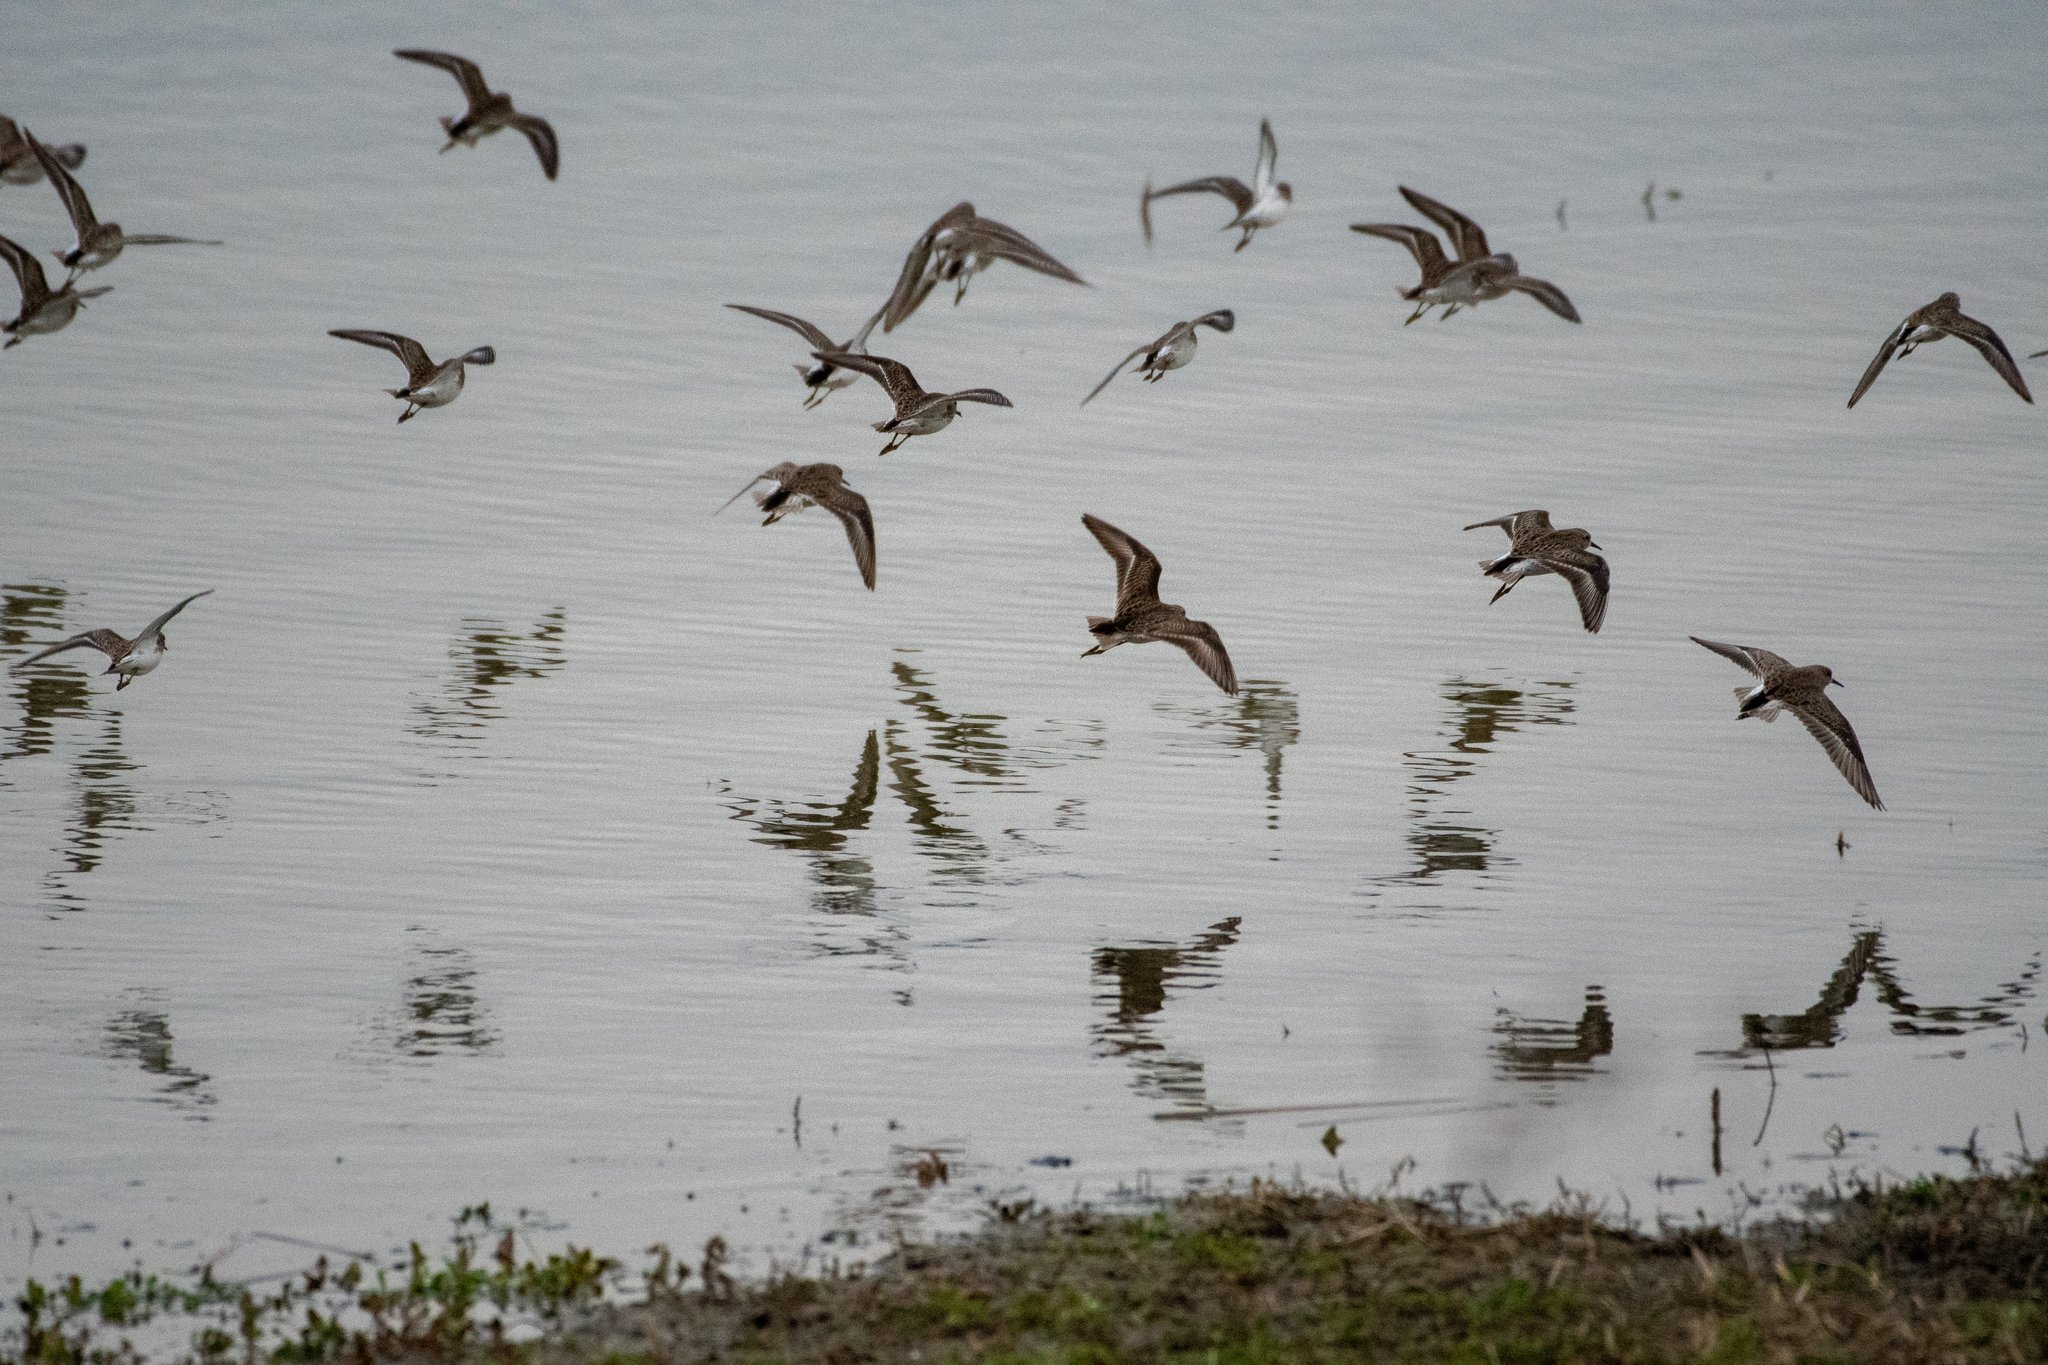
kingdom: Animalia
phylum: Chordata
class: Aves
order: Charadriiformes
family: Scolopacidae
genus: Calidris
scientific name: Calidris minutilla
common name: Least sandpiper
